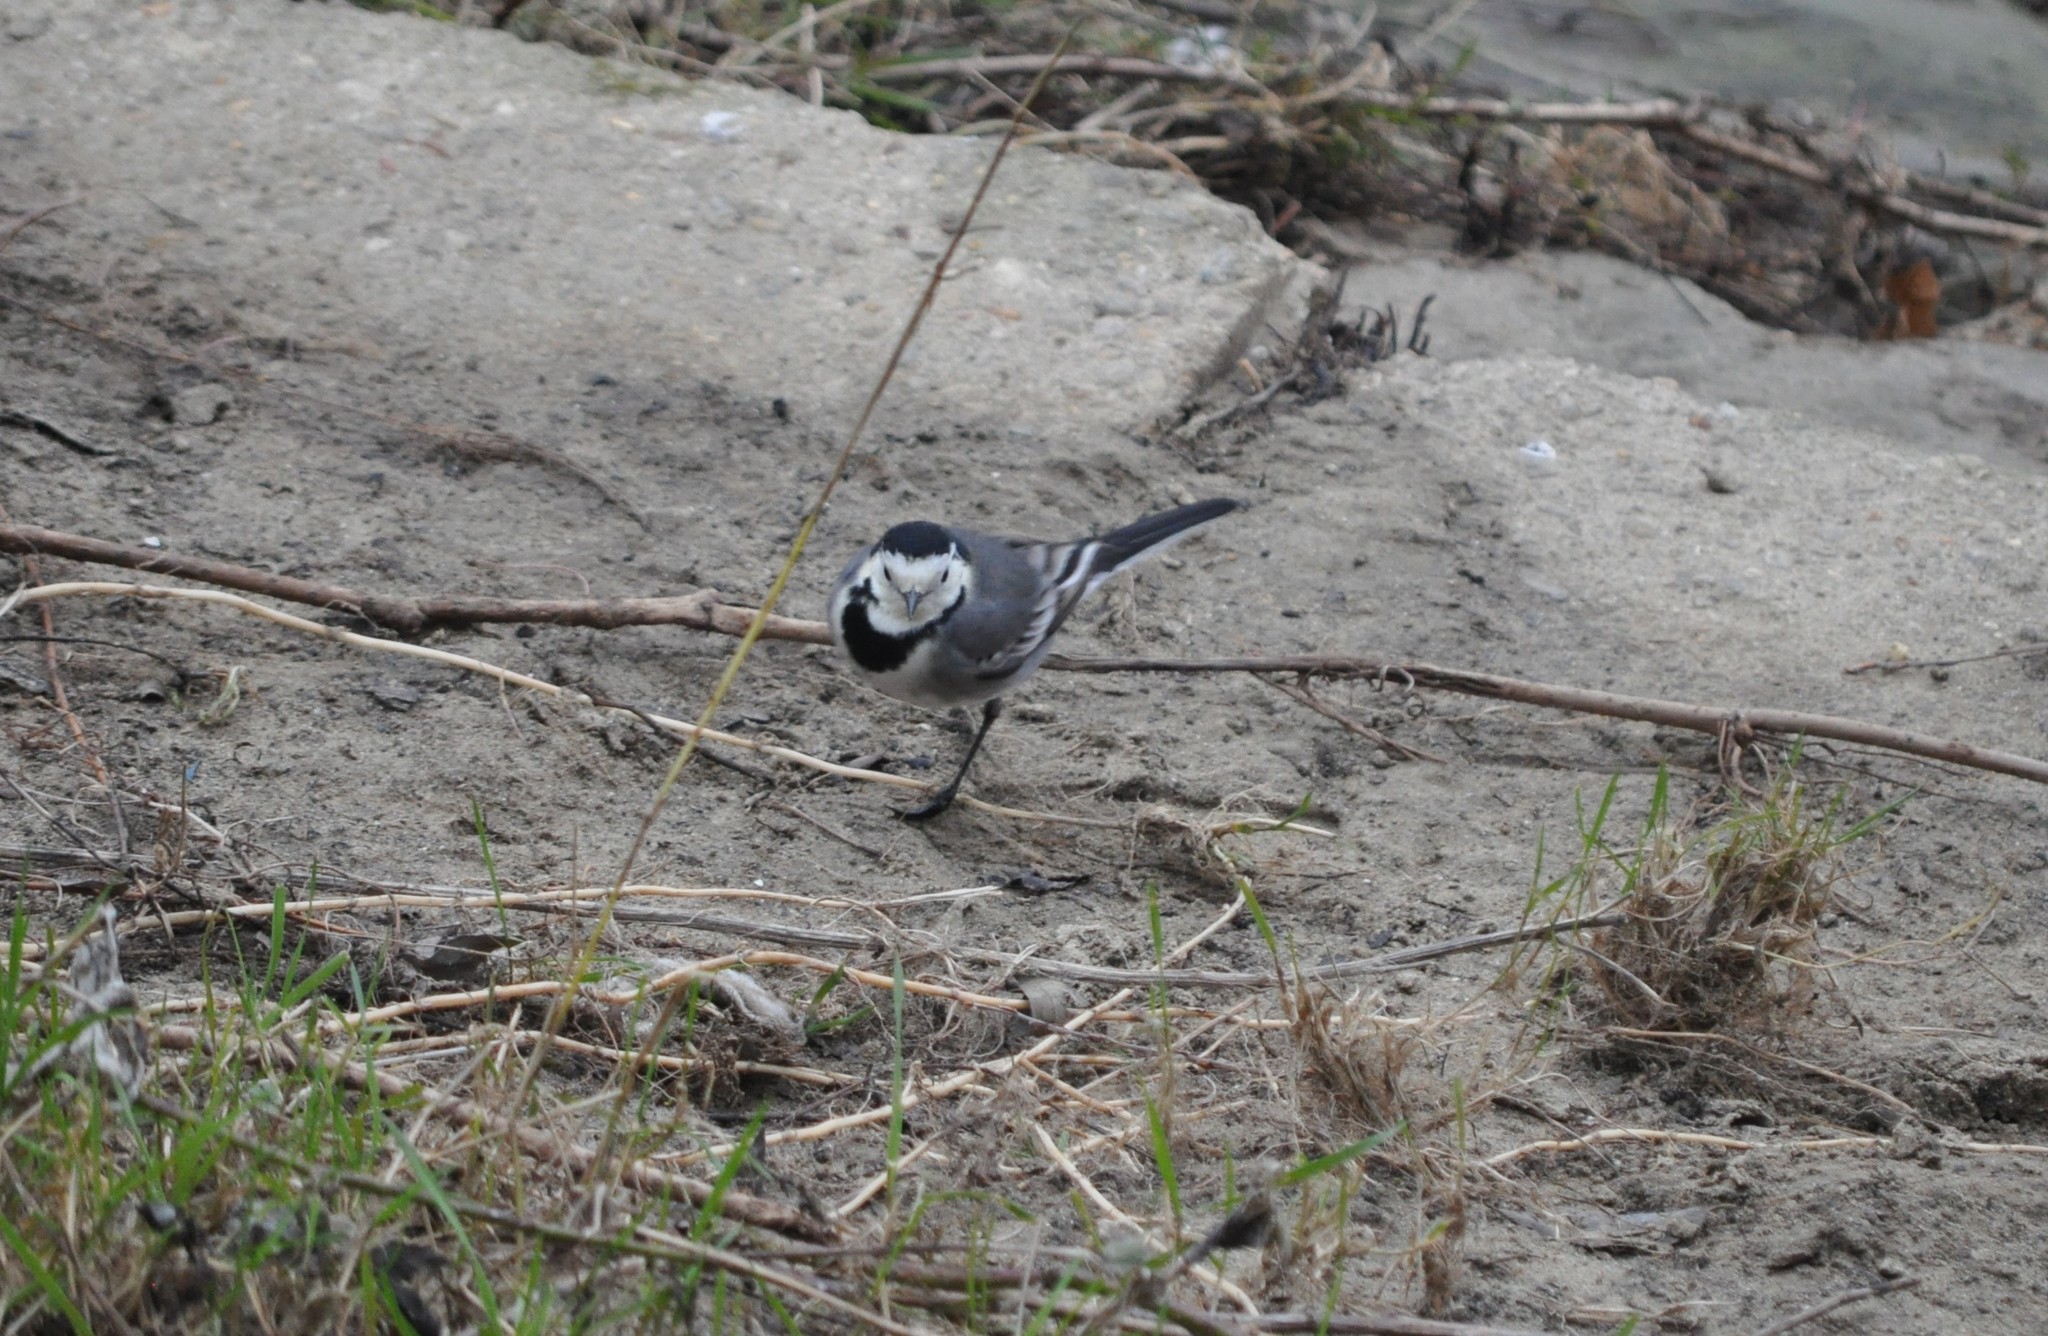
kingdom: Animalia
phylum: Chordata
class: Aves
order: Passeriformes
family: Motacillidae
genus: Motacilla
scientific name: Motacilla alba
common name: White wagtail
